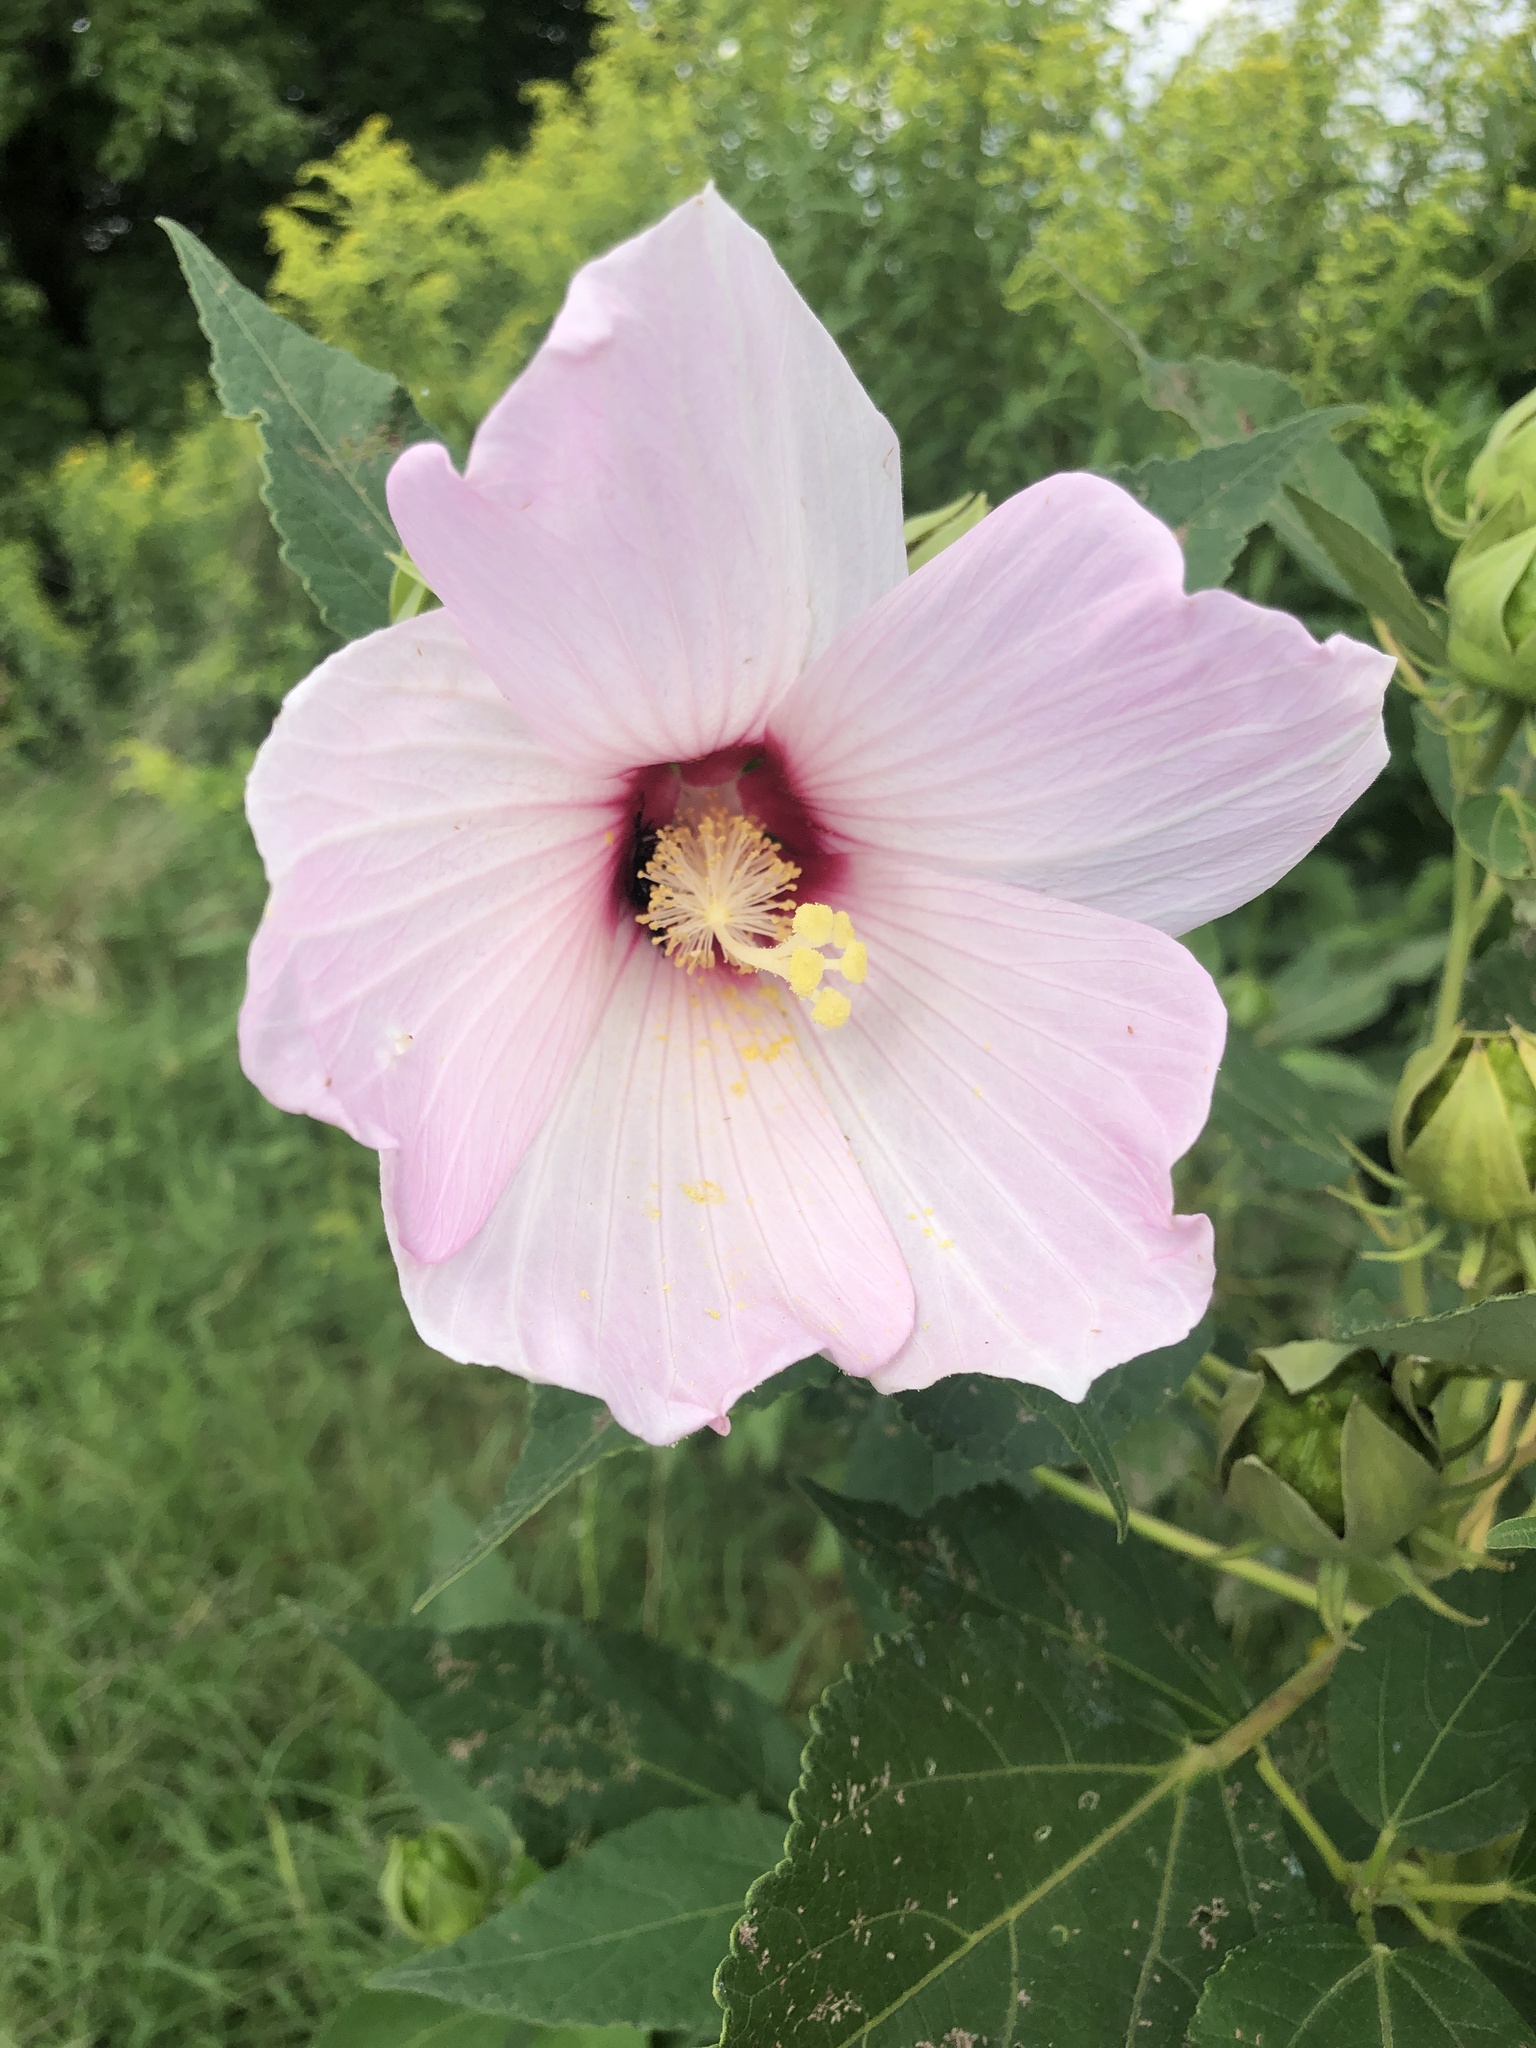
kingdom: Plantae
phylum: Tracheophyta
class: Magnoliopsida
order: Malvales
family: Malvaceae
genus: Hibiscus
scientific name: Hibiscus moscheutos
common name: Common rose-mallow
